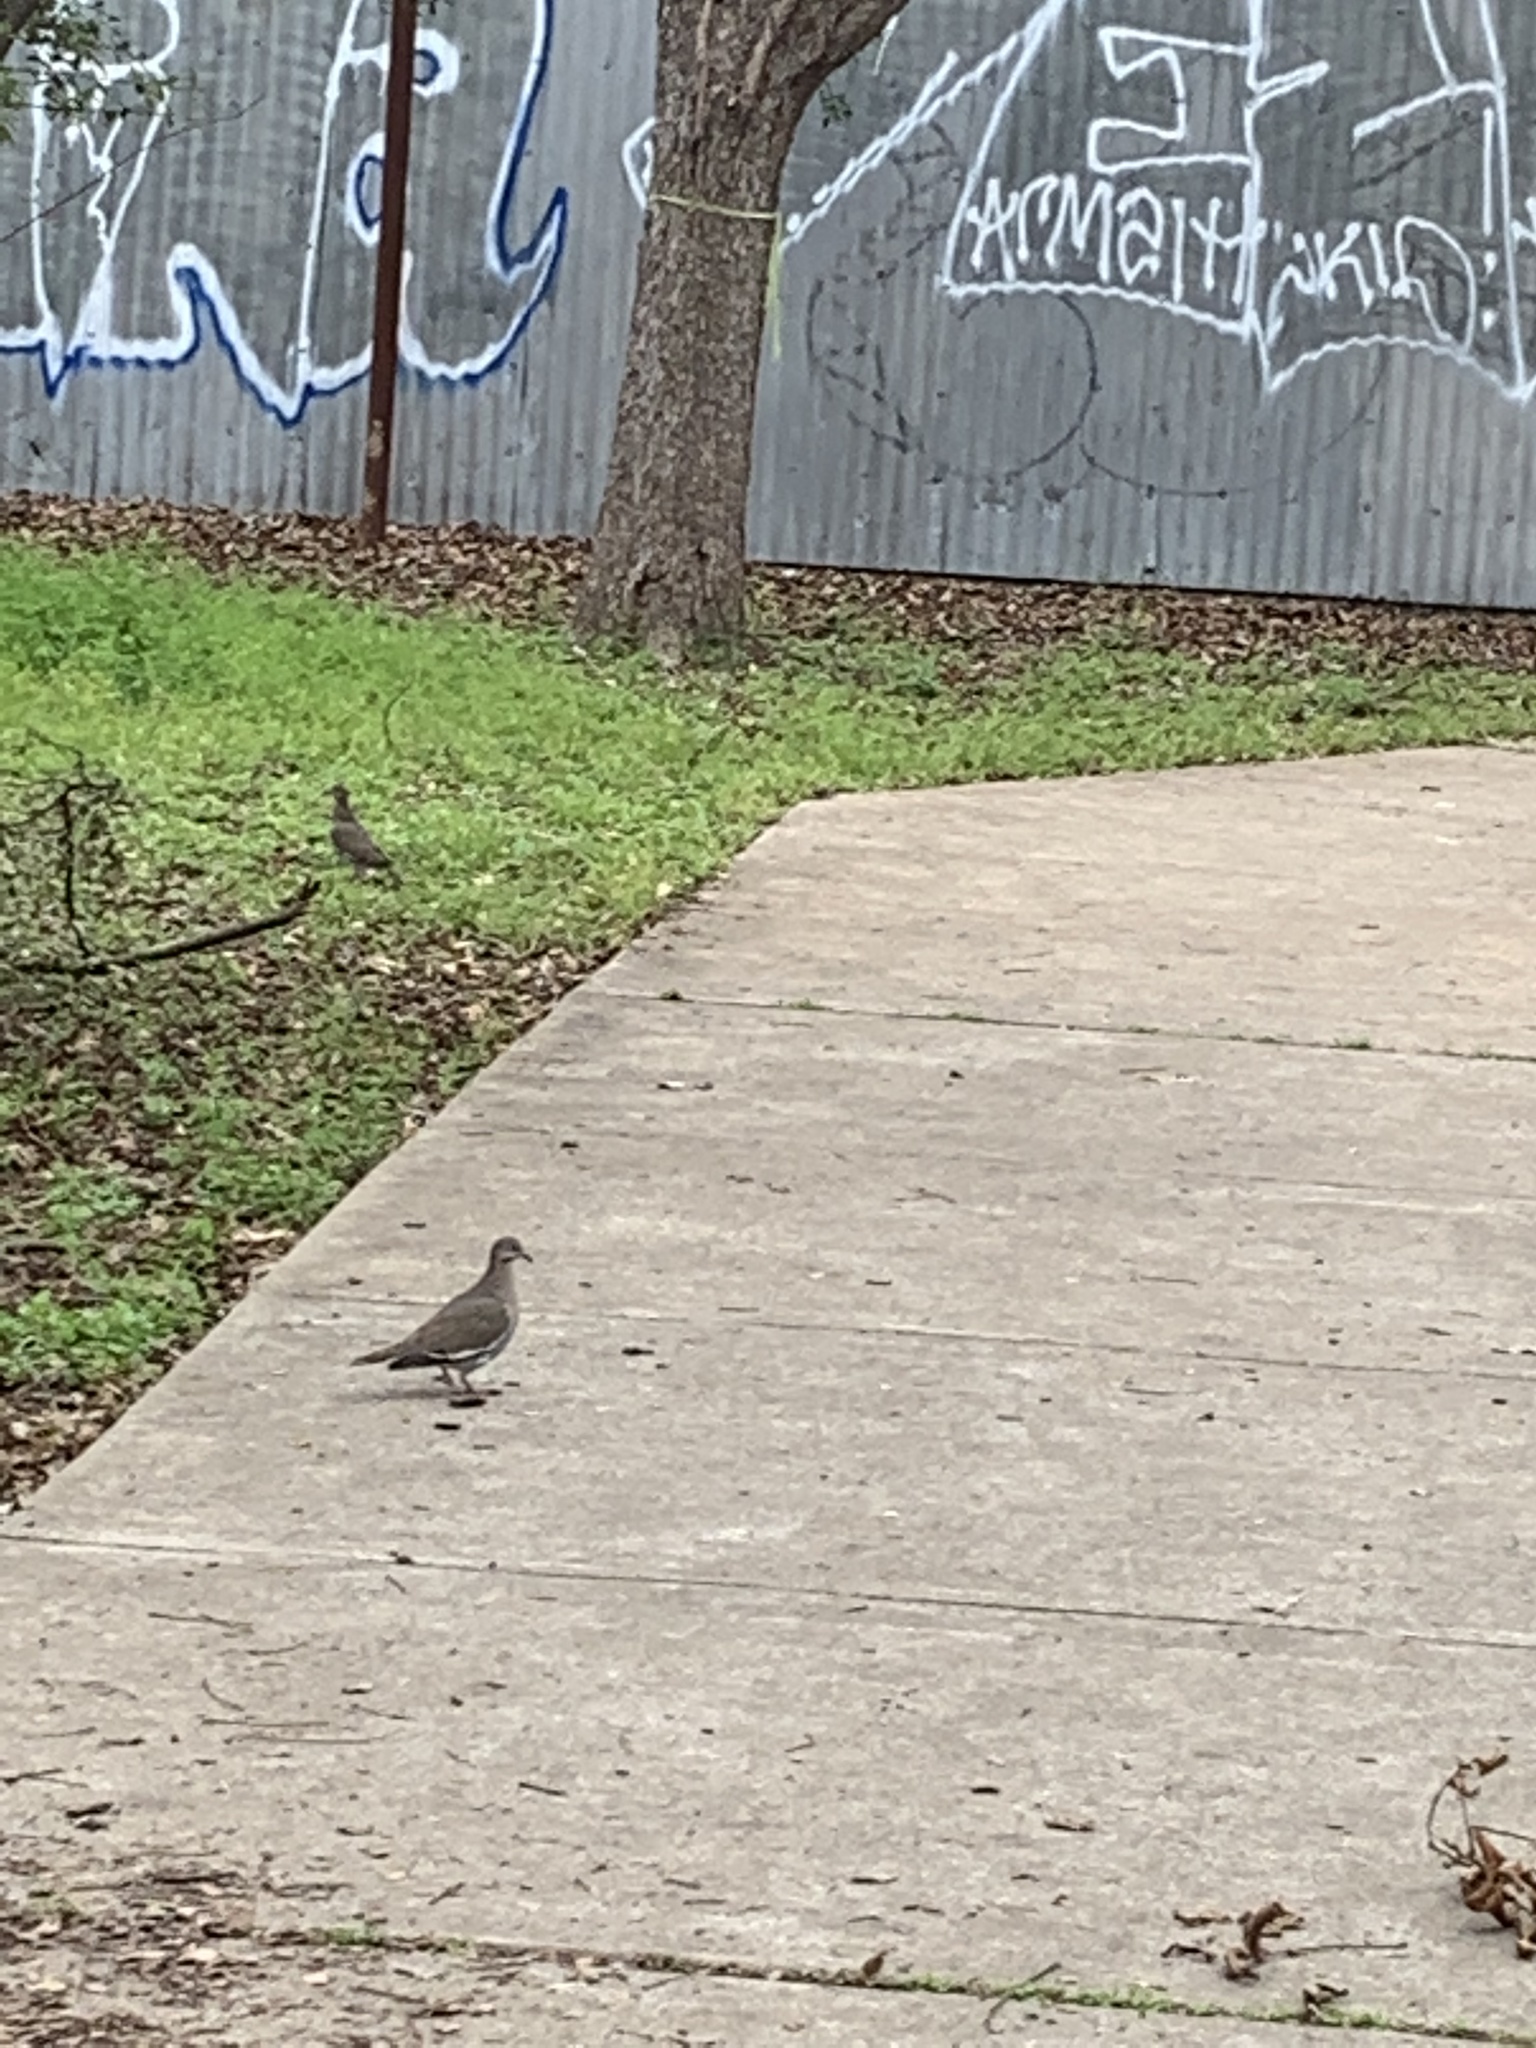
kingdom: Animalia
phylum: Chordata
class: Aves
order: Columbiformes
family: Columbidae
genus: Zenaida
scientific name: Zenaida asiatica
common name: White-winged dove
